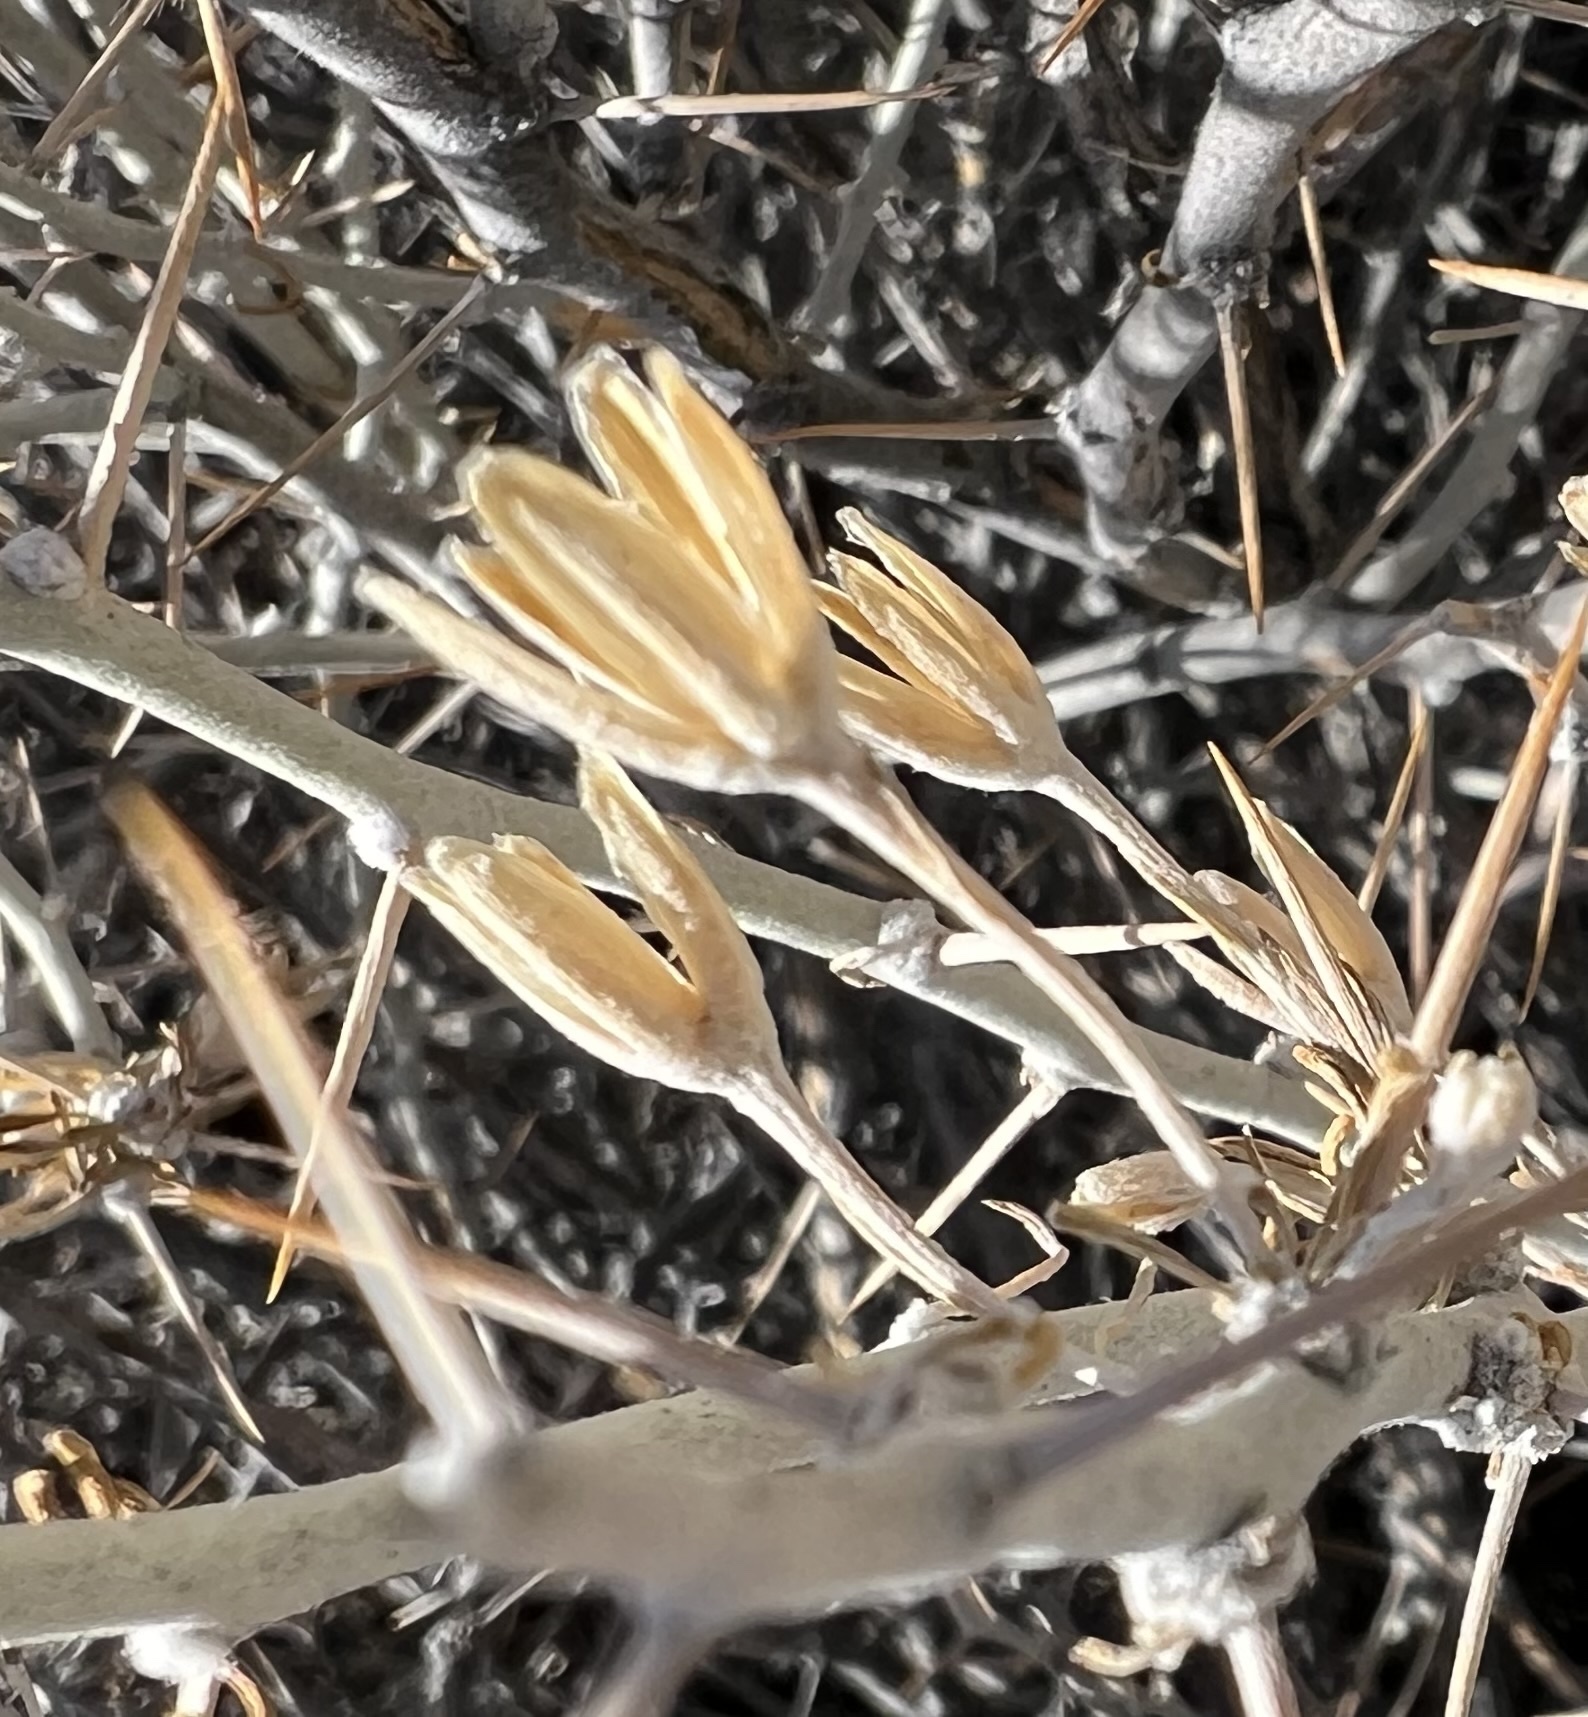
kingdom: Plantae
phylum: Tracheophyta
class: Magnoliopsida
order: Asterales
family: Asteraceae
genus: Tetradymia
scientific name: Tetradymia axillaris
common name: Long-spine horsebrush
